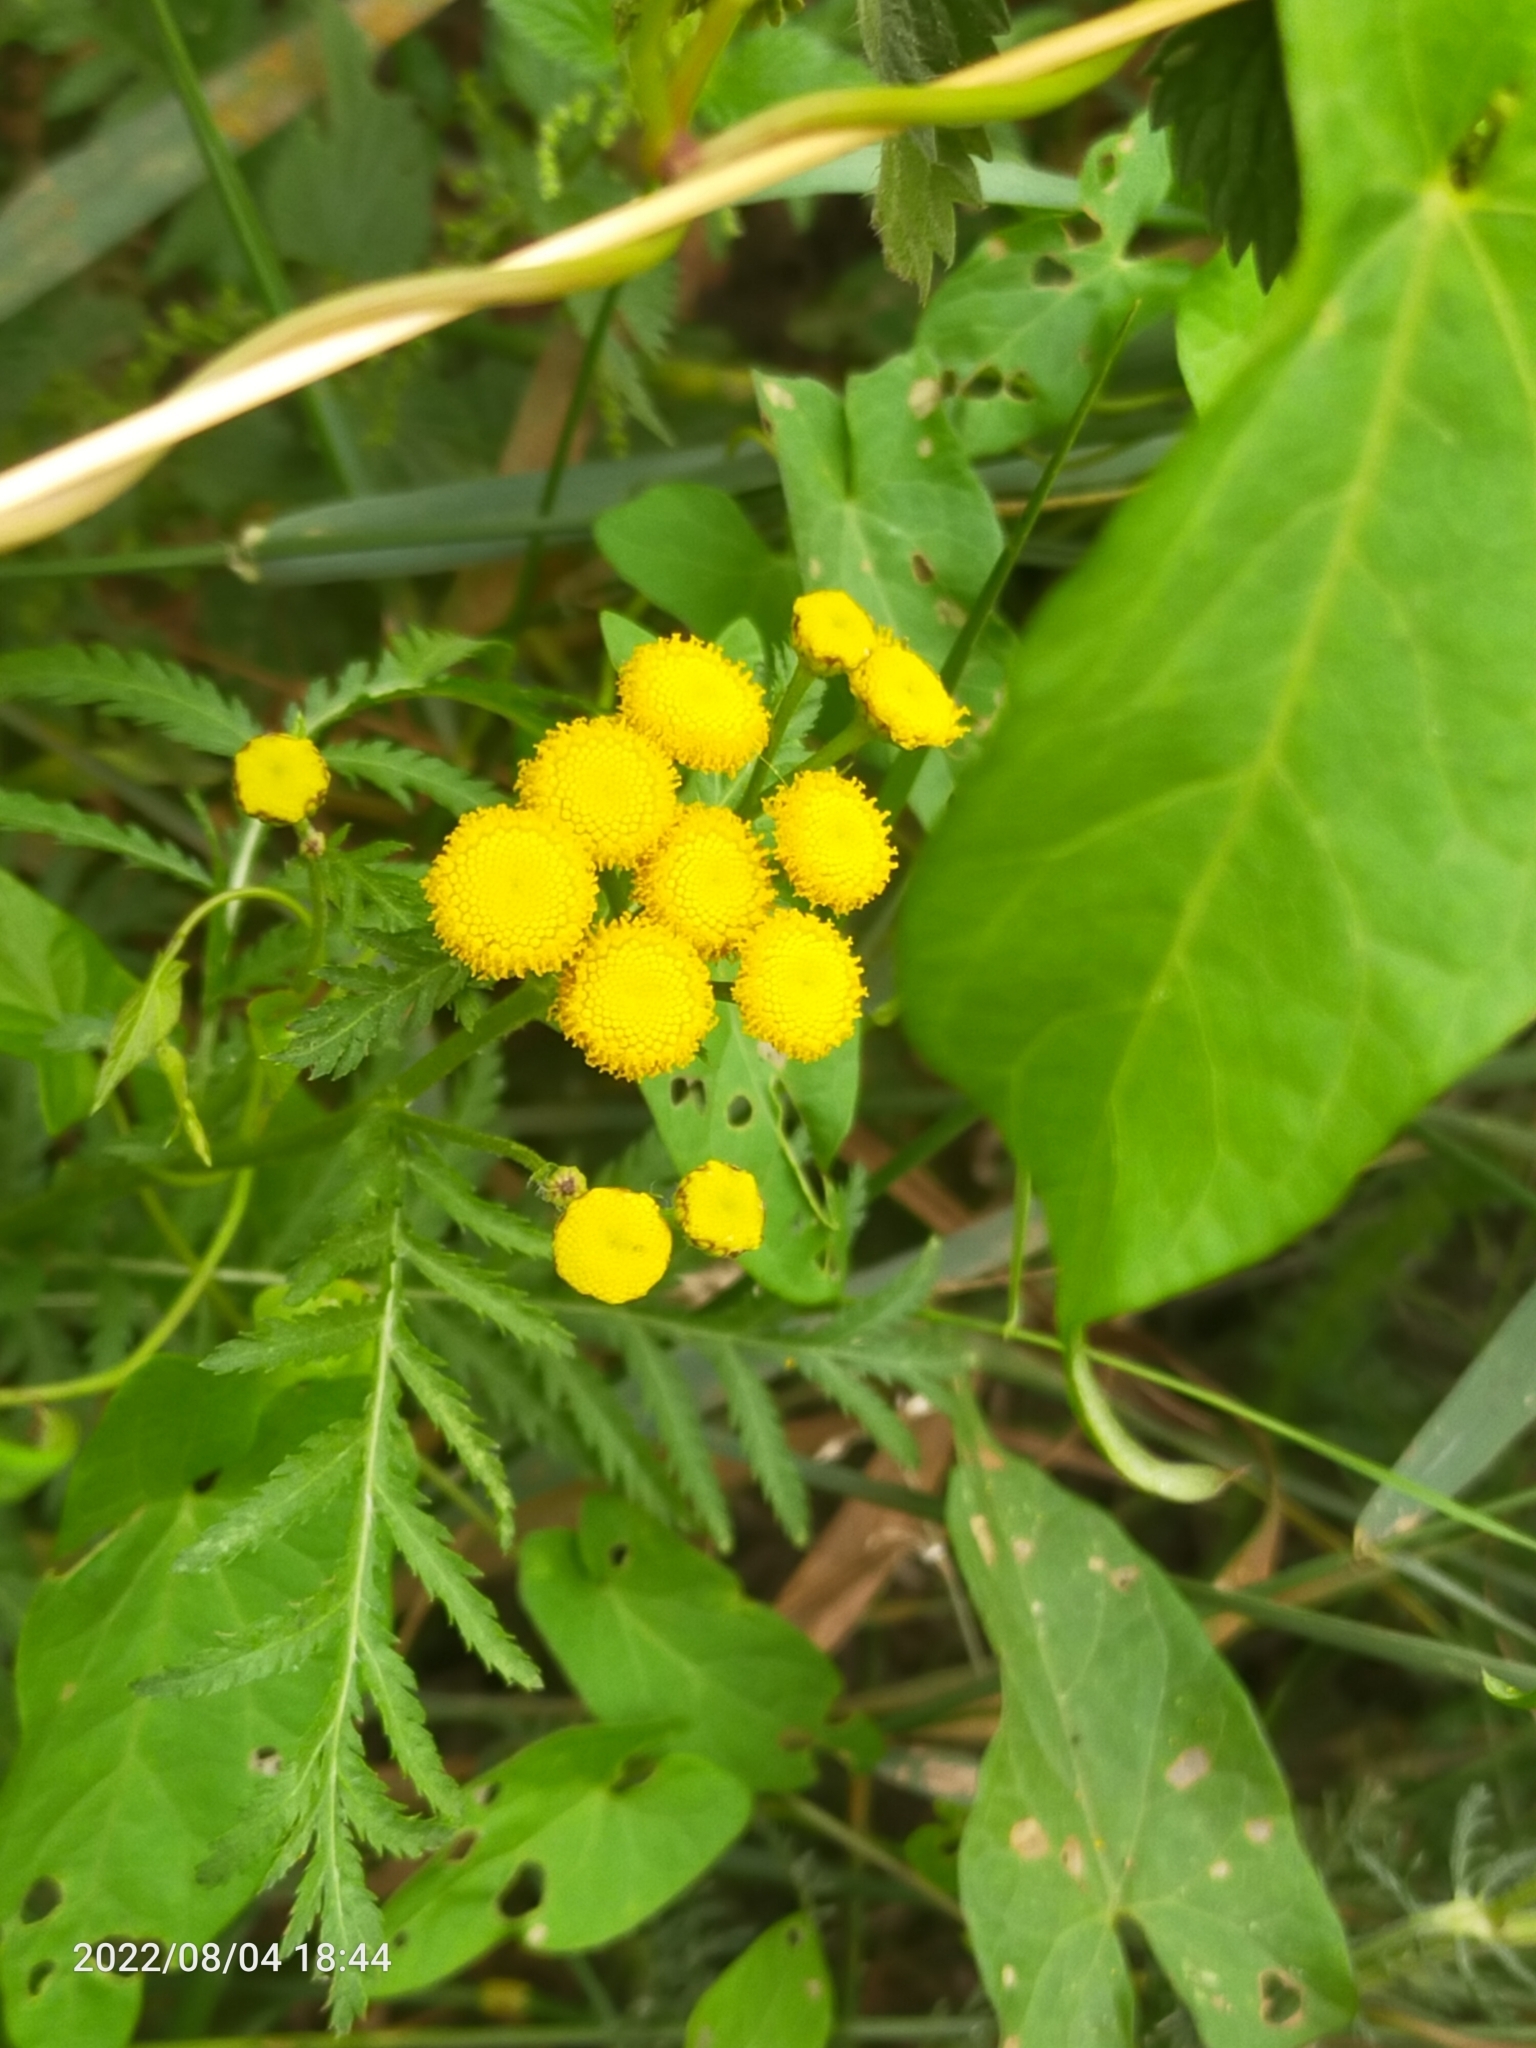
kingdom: Plantae
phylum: Tracheophyta
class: Magnoliopsida
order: Asterales
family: Asteraceae
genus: Tanacetum
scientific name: Tanacetum vulgare
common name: Common tansy
